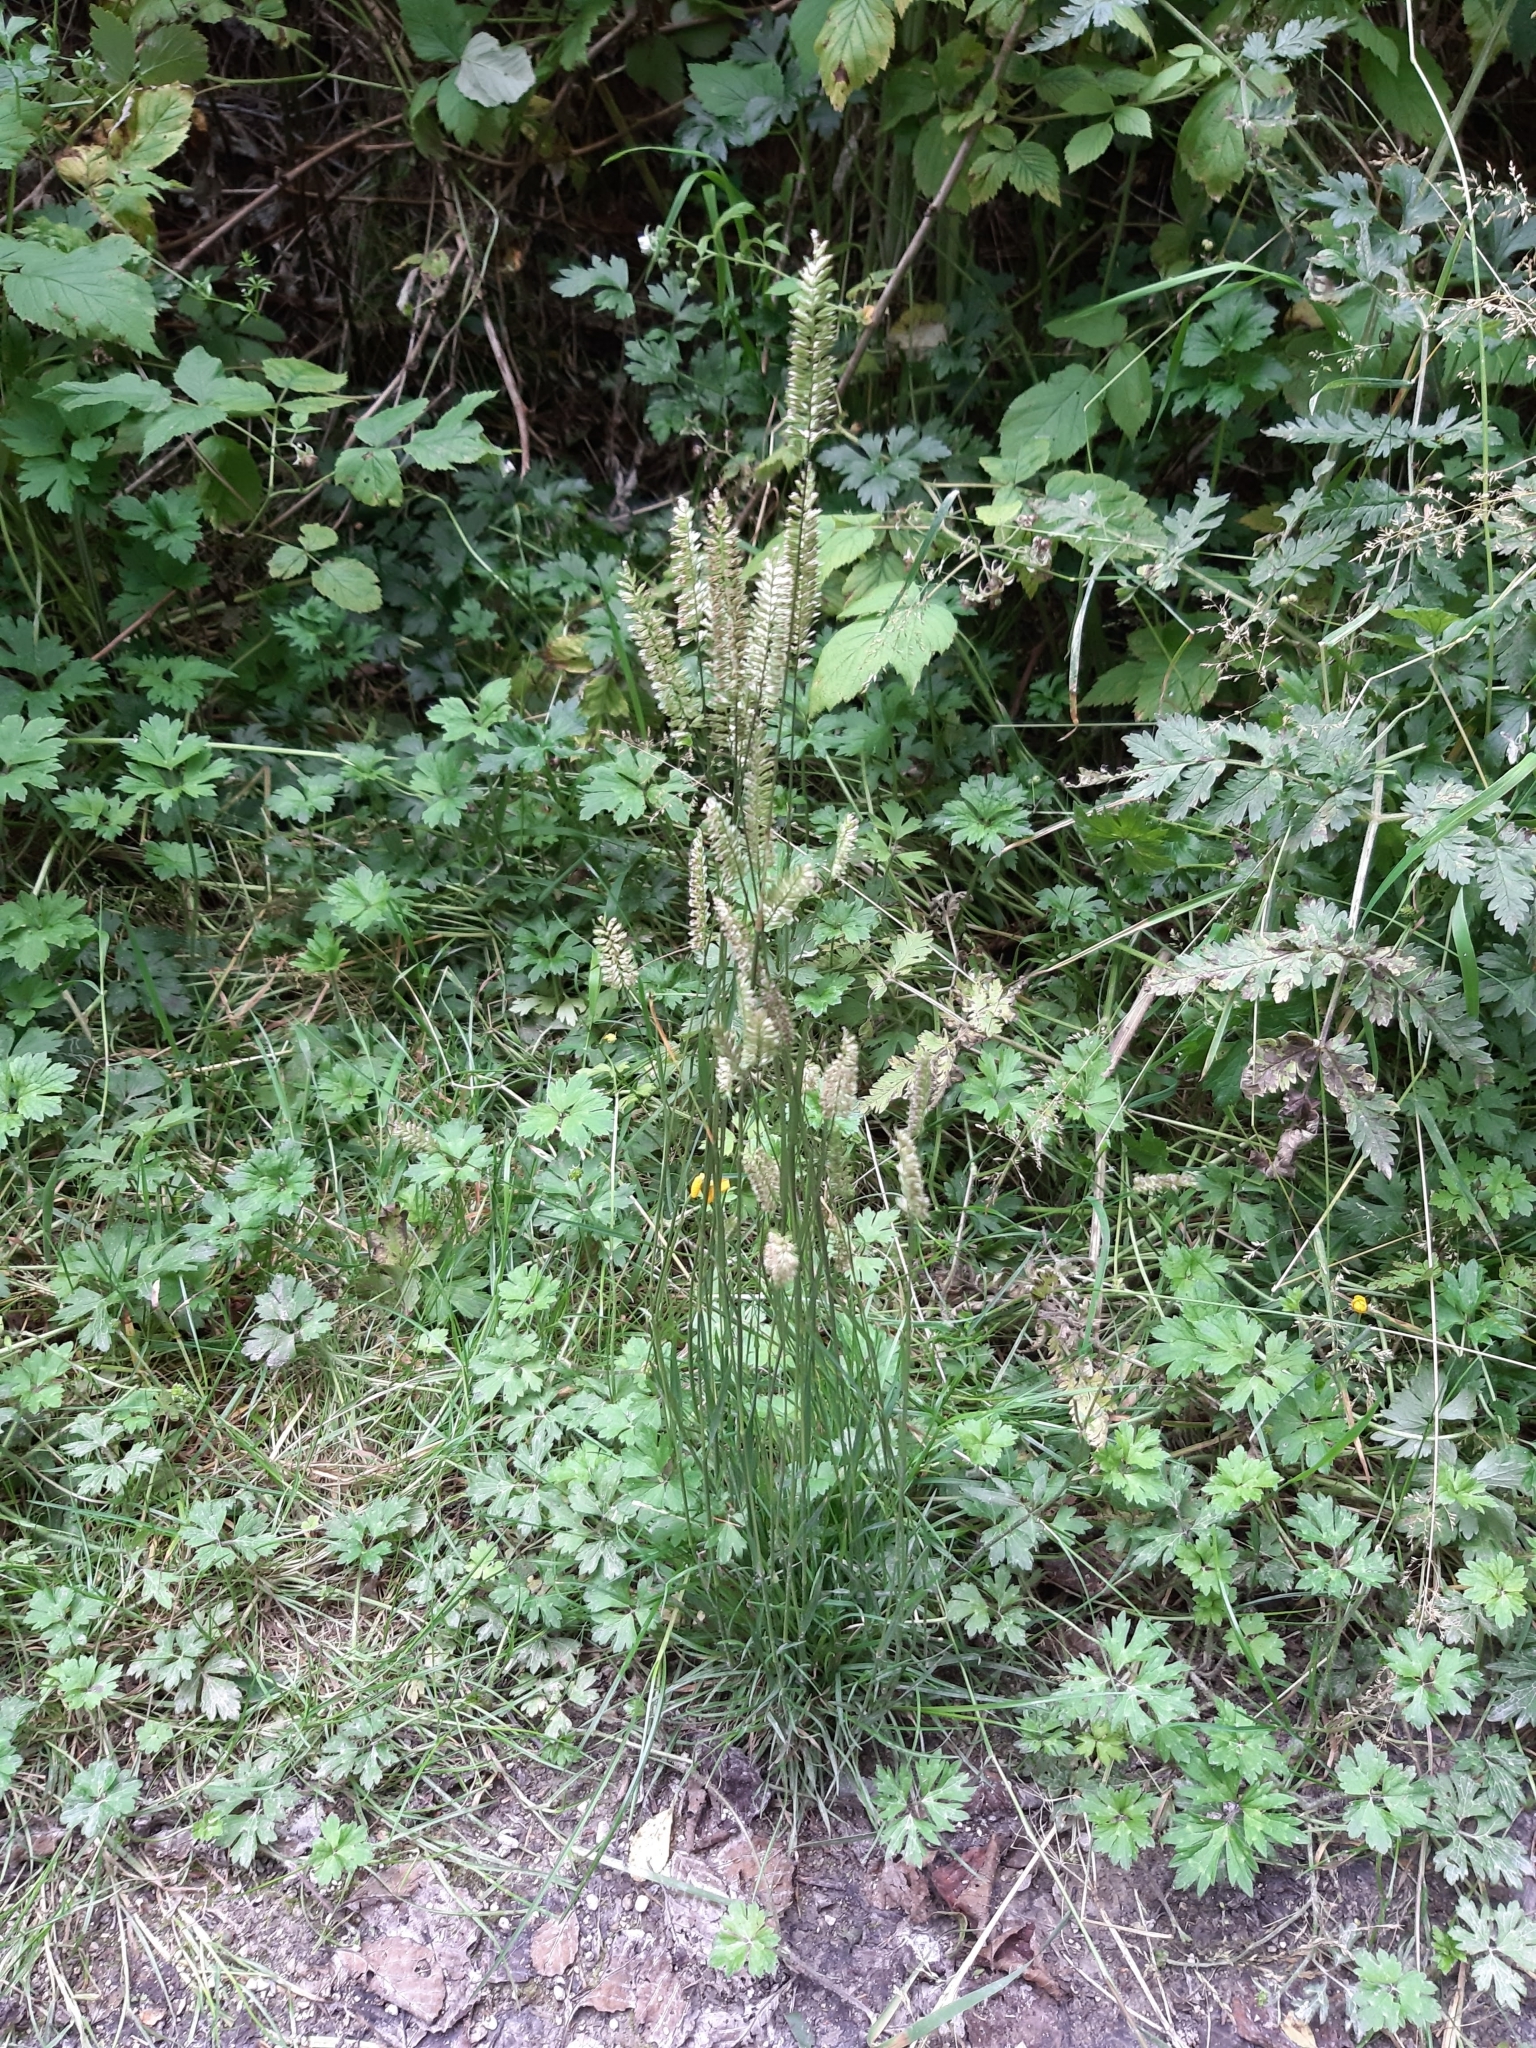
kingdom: Plantae
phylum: Tracheophyta
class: Liliopsida
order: Poales
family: Poaceae
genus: Cynosurus
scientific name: Cynosurus cristatus
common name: Crested dog's-tail
